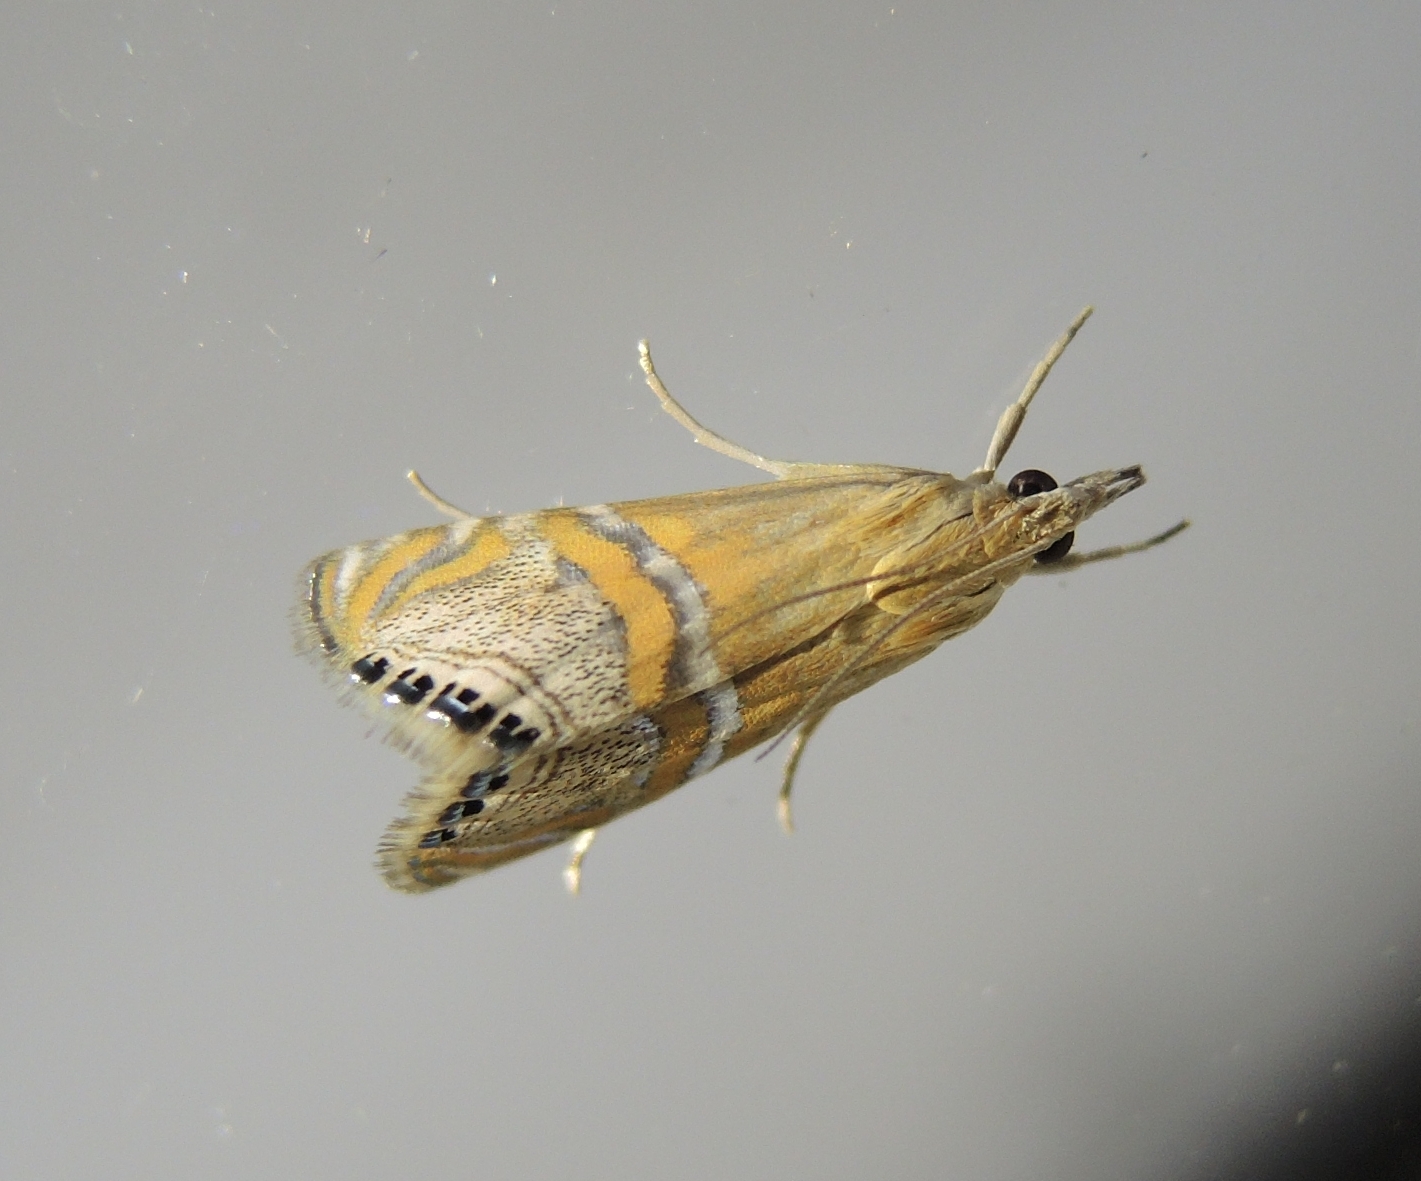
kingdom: Animalia
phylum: Arthropoda
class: Insecta
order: Lepidoptera
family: Crambidae
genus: Euchromius
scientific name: Euchromius bella
